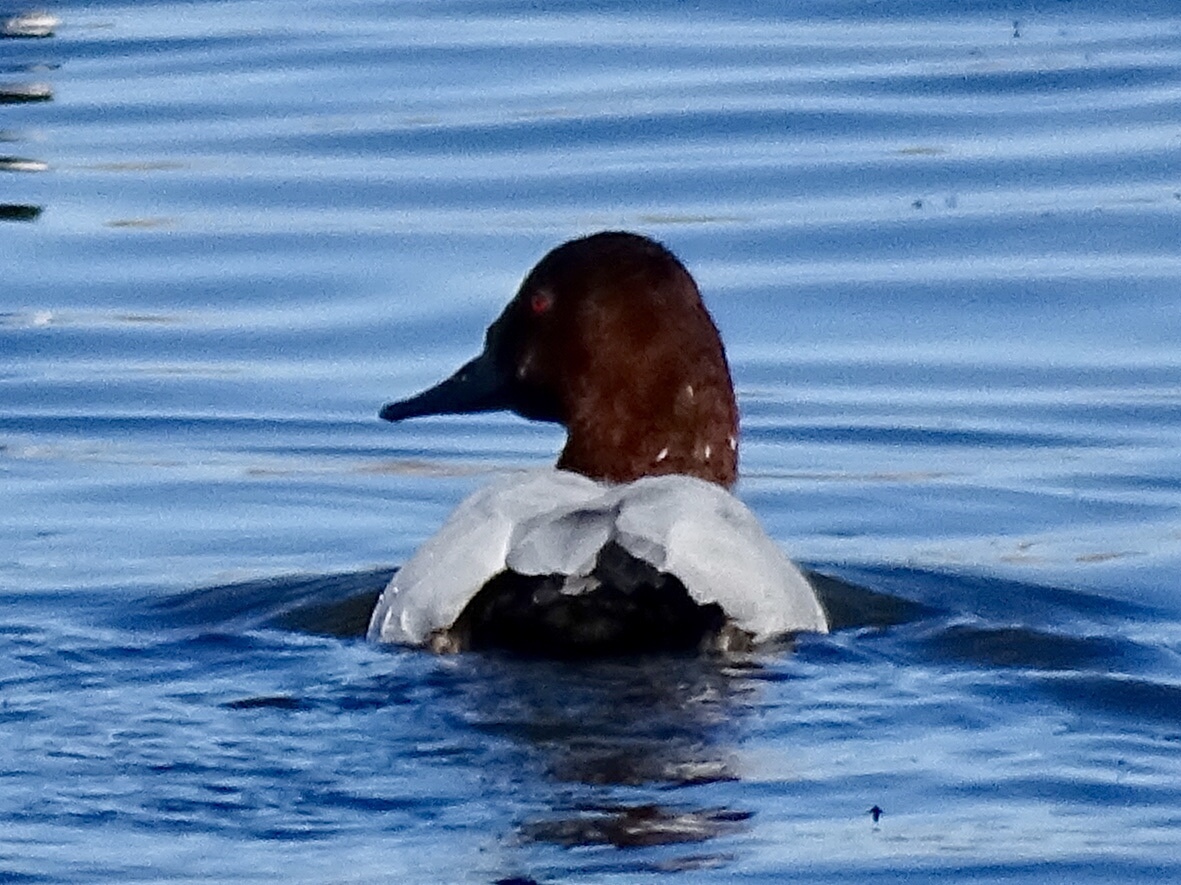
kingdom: Animalia
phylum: Chordata
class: Aves
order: Anseriformes
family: Anatidae
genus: Aythya
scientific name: Aythya valisineria
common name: Canvasback
